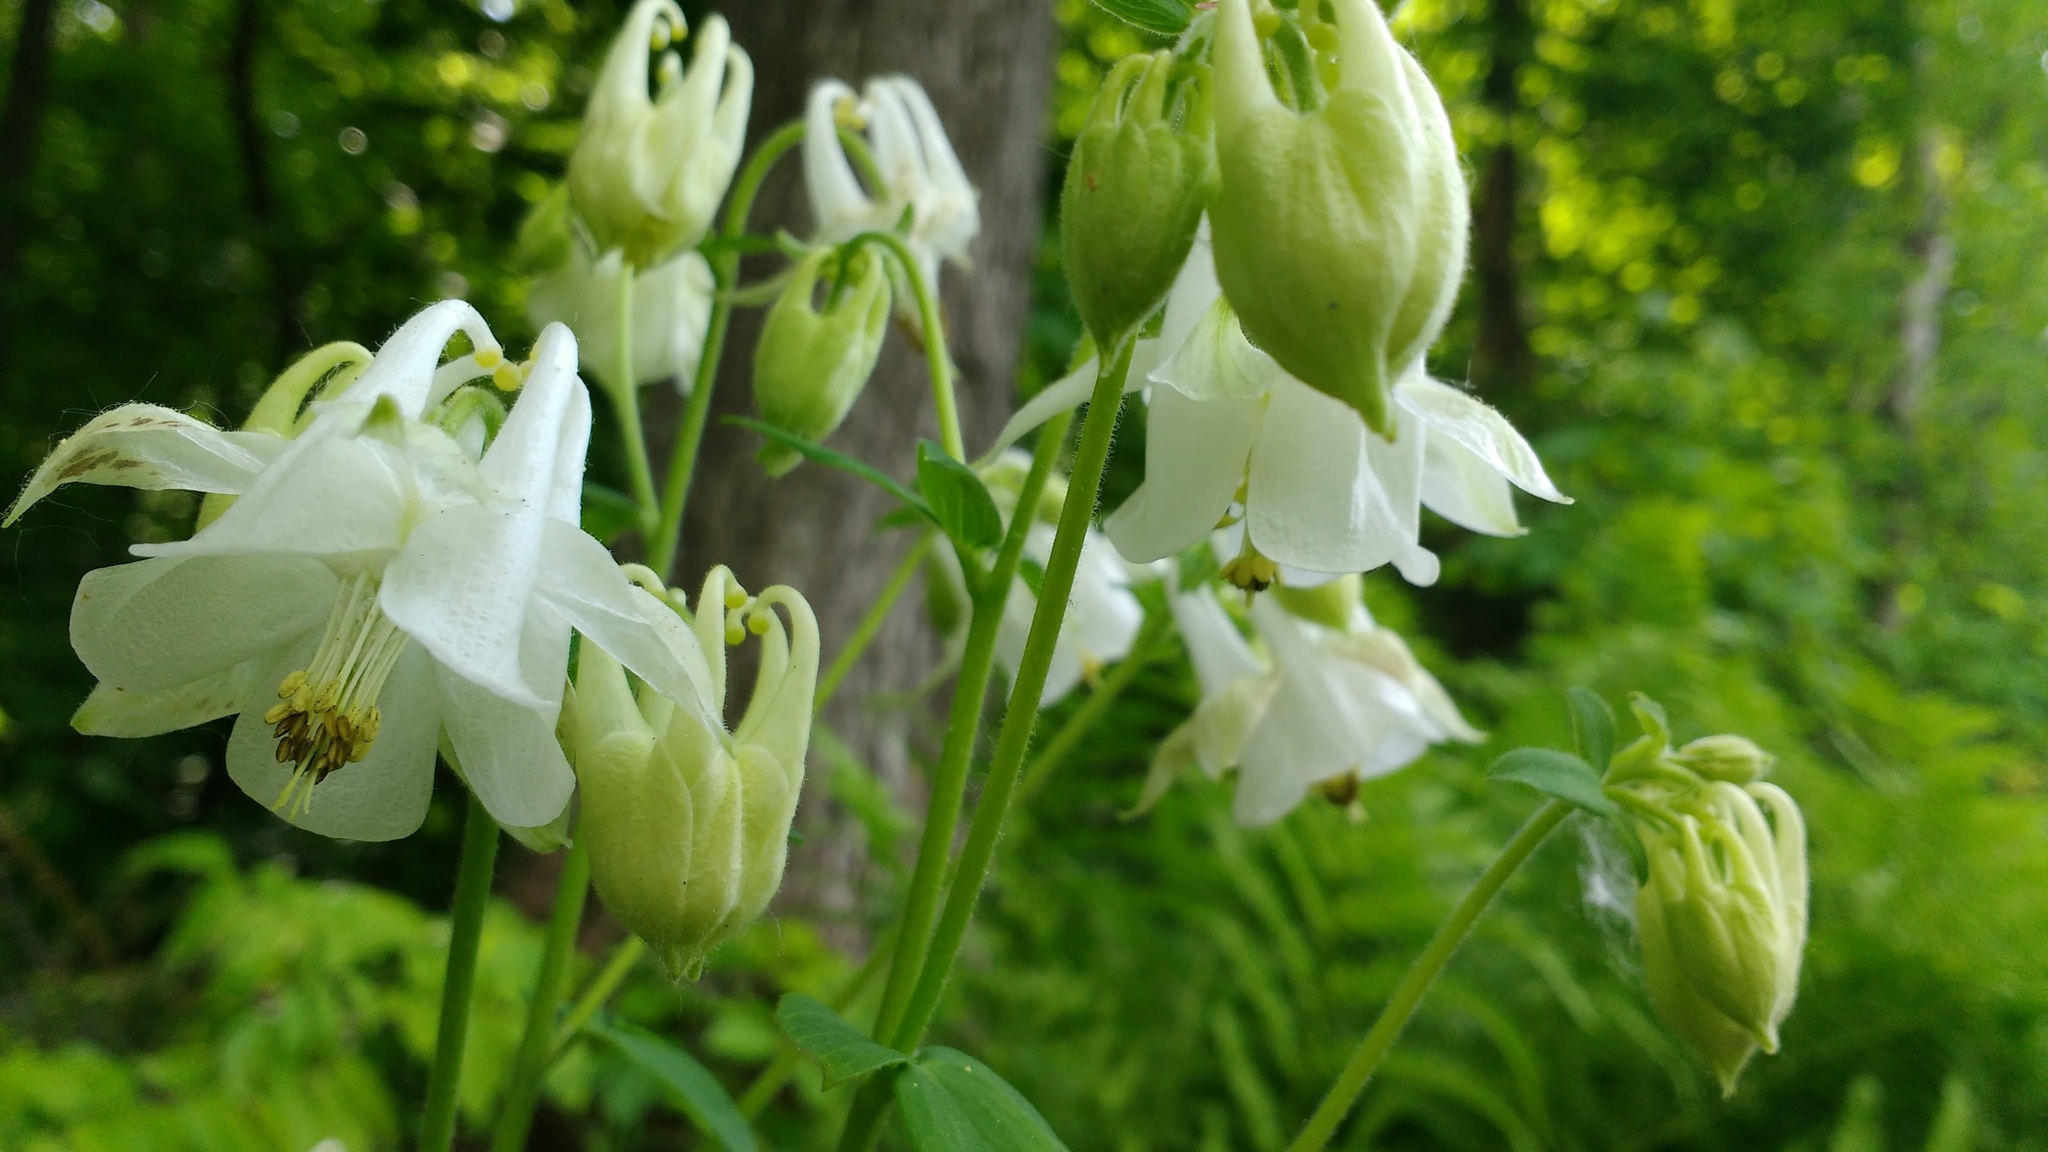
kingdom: Plantae
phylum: Tracheophyta
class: Magnoliopsida
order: Ranunculales
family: Ranunculaceae
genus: Aquilegia
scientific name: Aquilegia vulgaris
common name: Columbine
